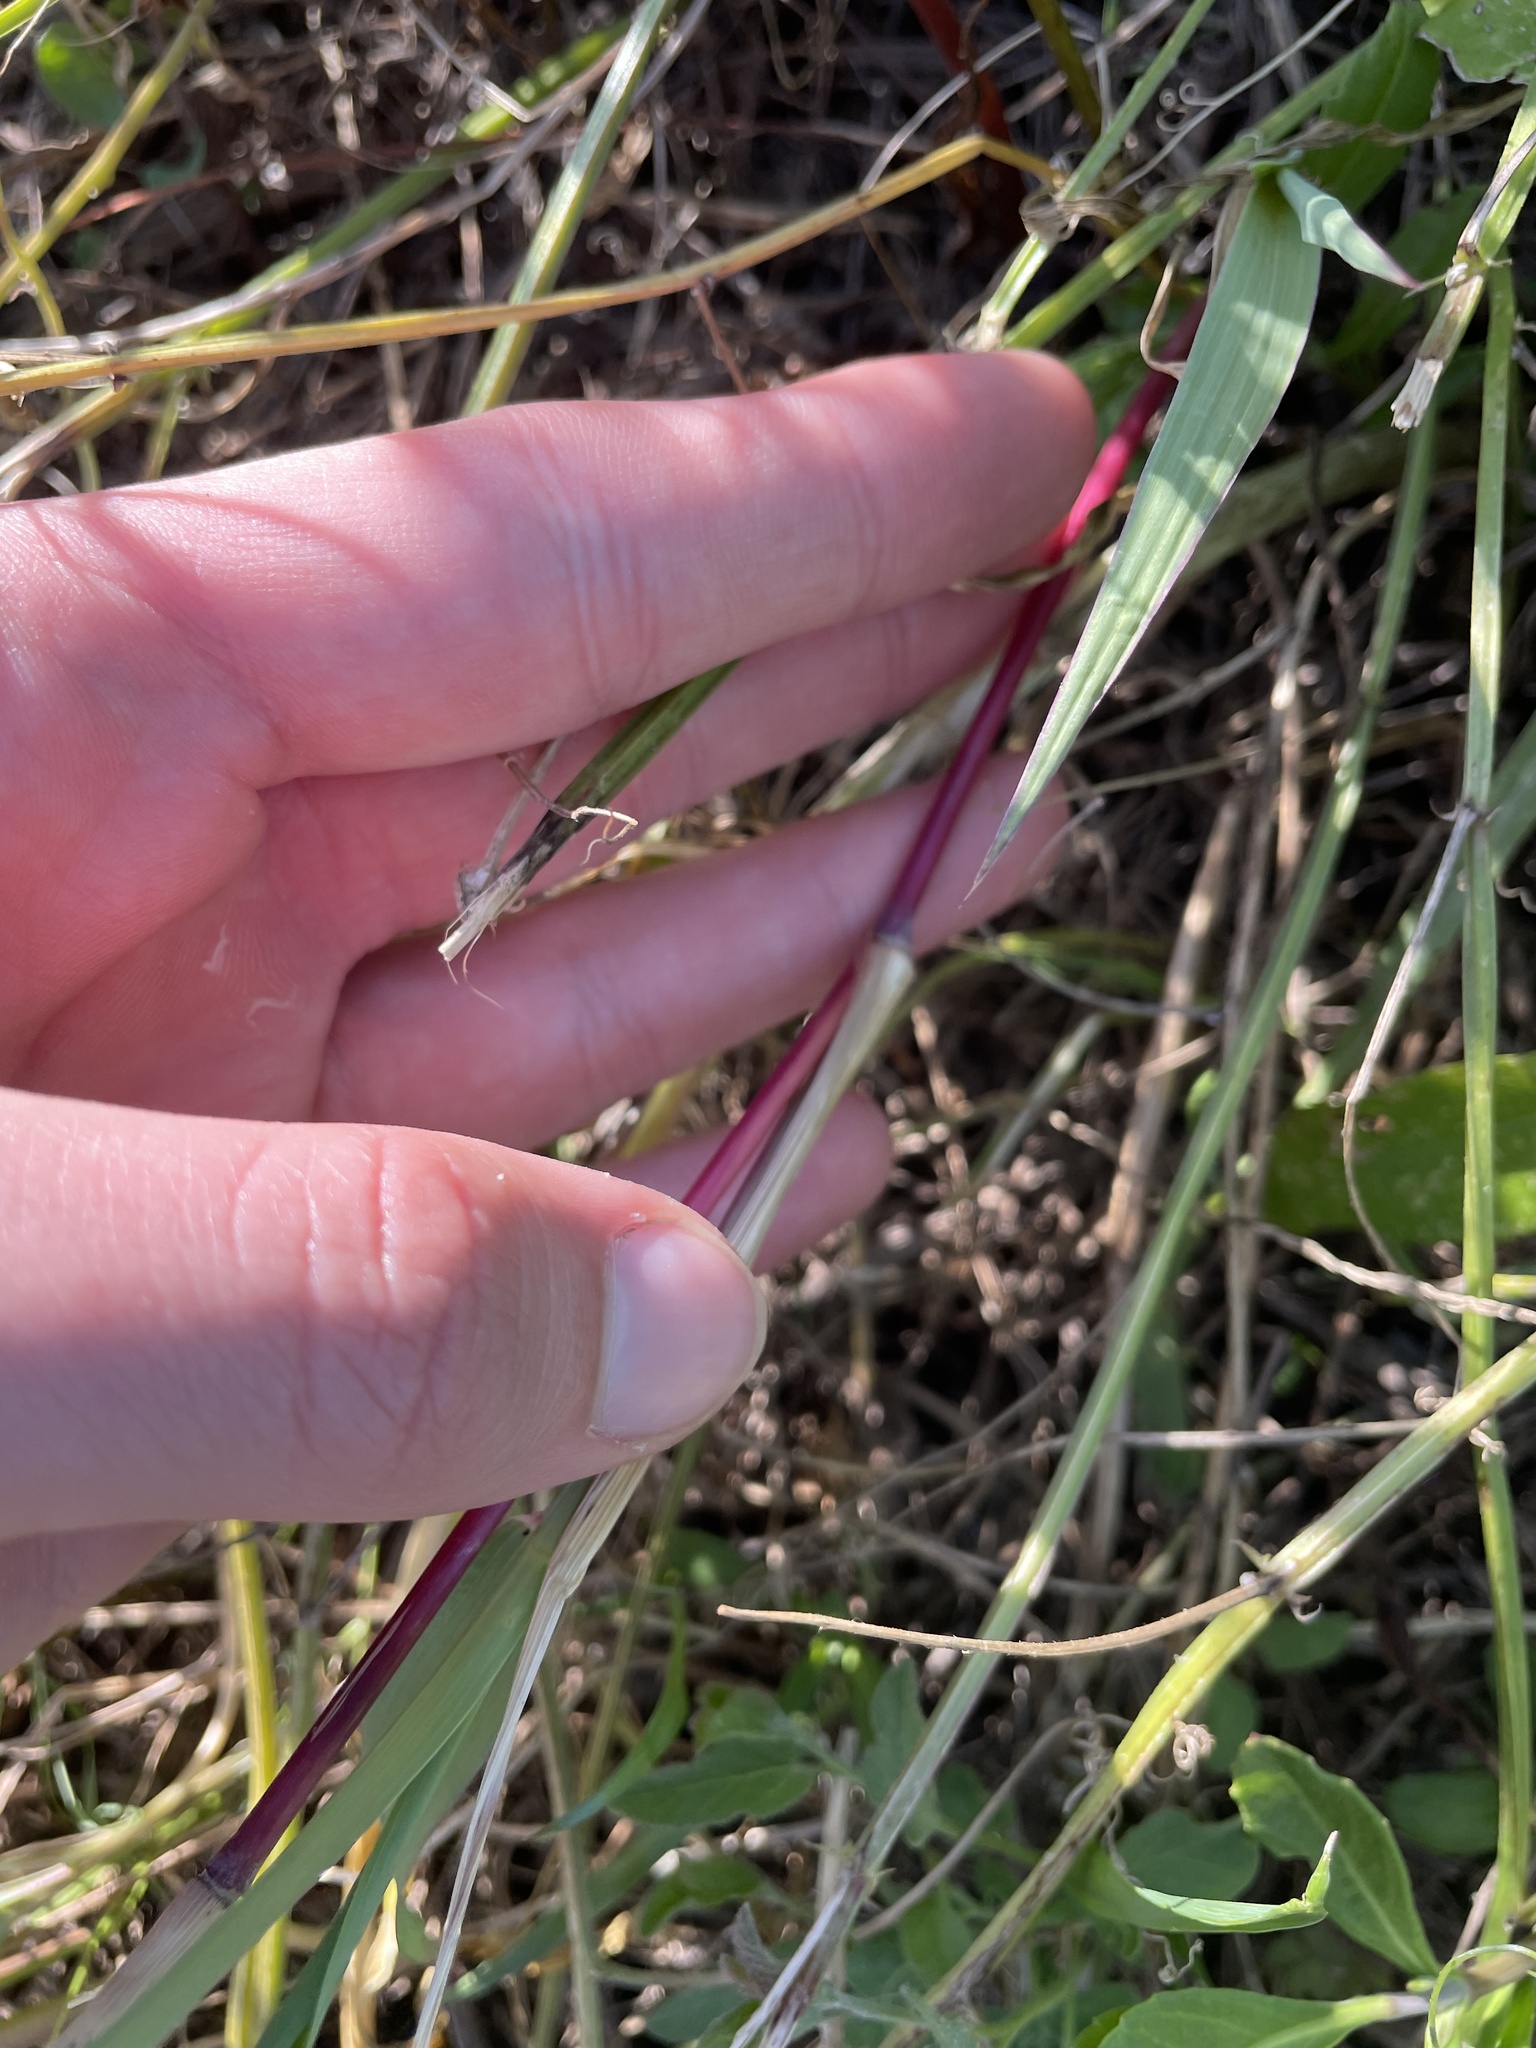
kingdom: Plantae
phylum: Tracheophyta
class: Liliopsida
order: Poales
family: Poaceae
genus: Sorghum
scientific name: Sorghum halepense
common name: Johnson-grass
